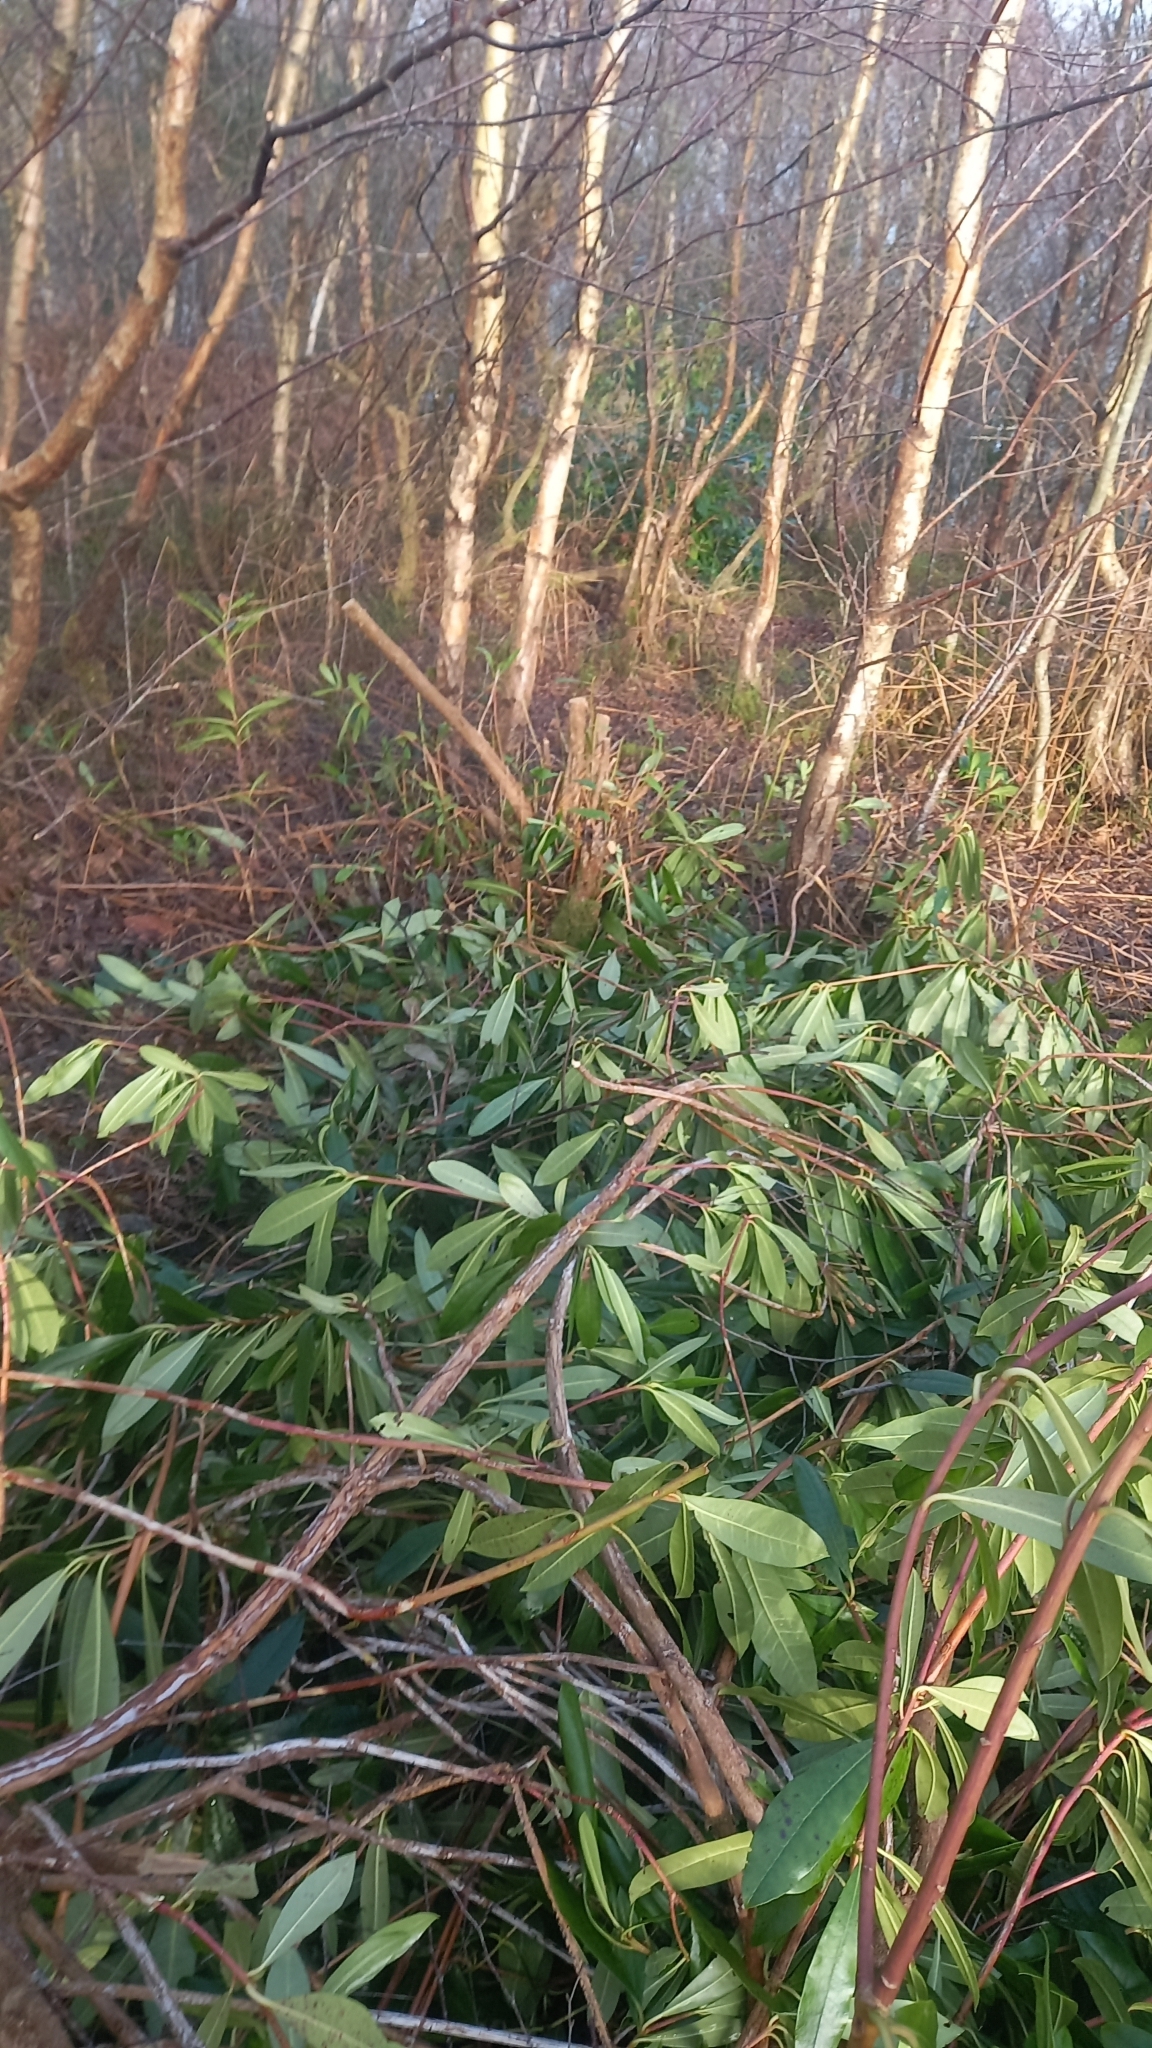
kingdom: Plantae
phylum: Tracheophyta
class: Magnoliopsida
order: Ericales
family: Ericaceae
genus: Rhododendron
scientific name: Rhododendron ponticum
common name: Rhododendron
